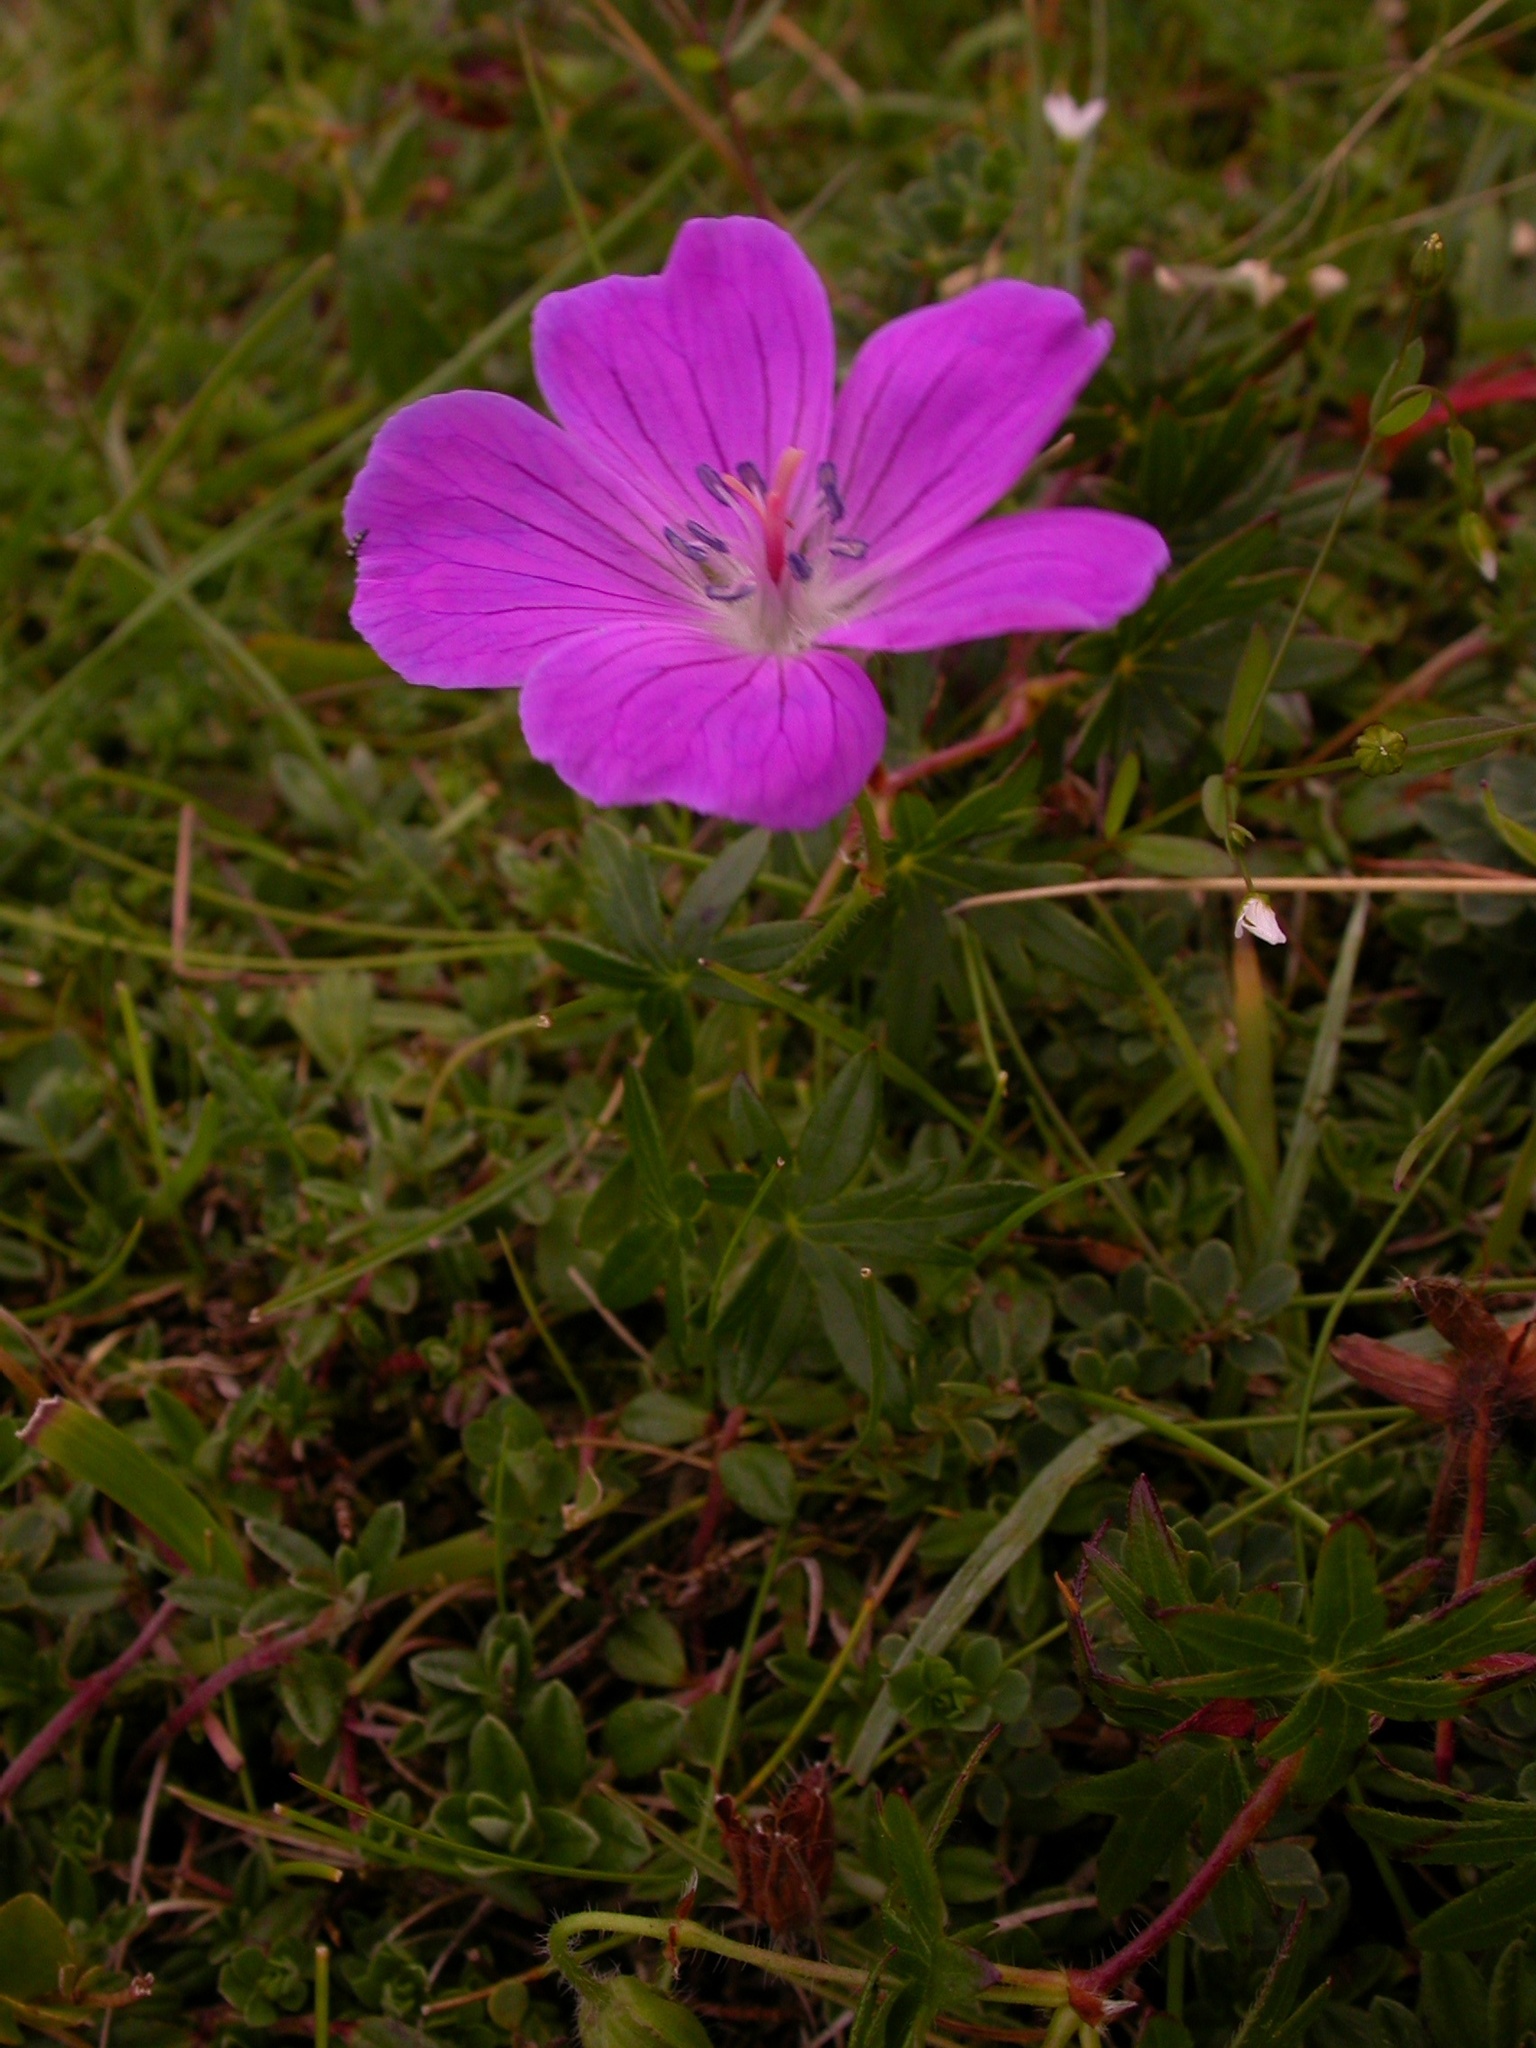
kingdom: Plantae
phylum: Tracheophyta
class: Magnoliopsida
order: Geraniales
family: Geraniaceae
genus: Geranium
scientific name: Geranium sanguineum
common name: Bloody crane's-bill
